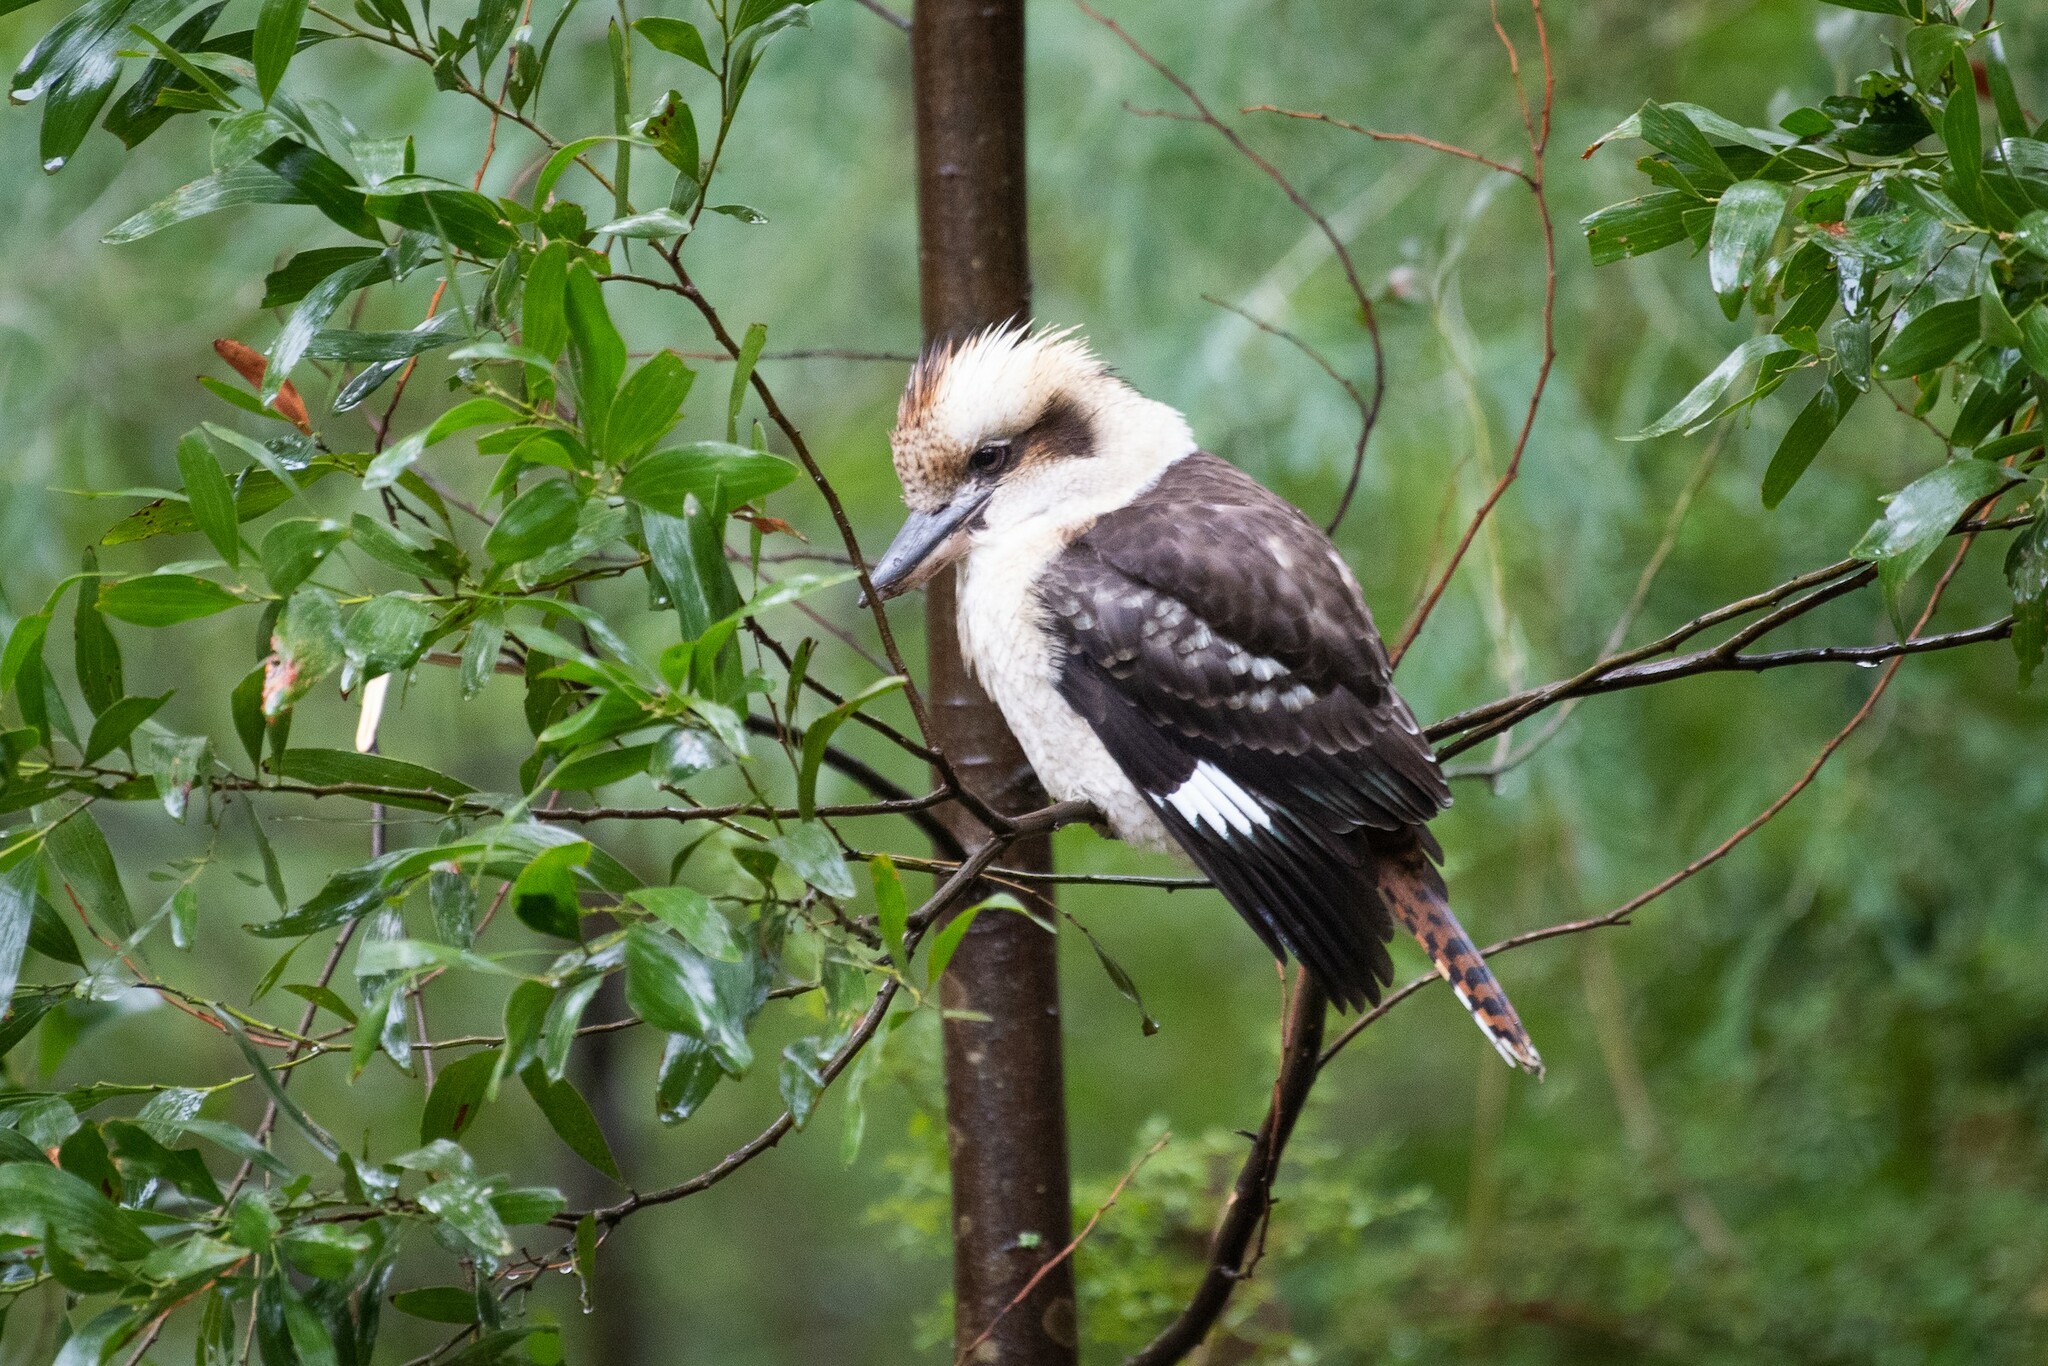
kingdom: Animalia
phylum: Chordata
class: Aves
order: Coraciiformes
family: Alcedinidae
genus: Dacelo
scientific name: Dacelo novaeguineae
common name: Laughing kookaburra
